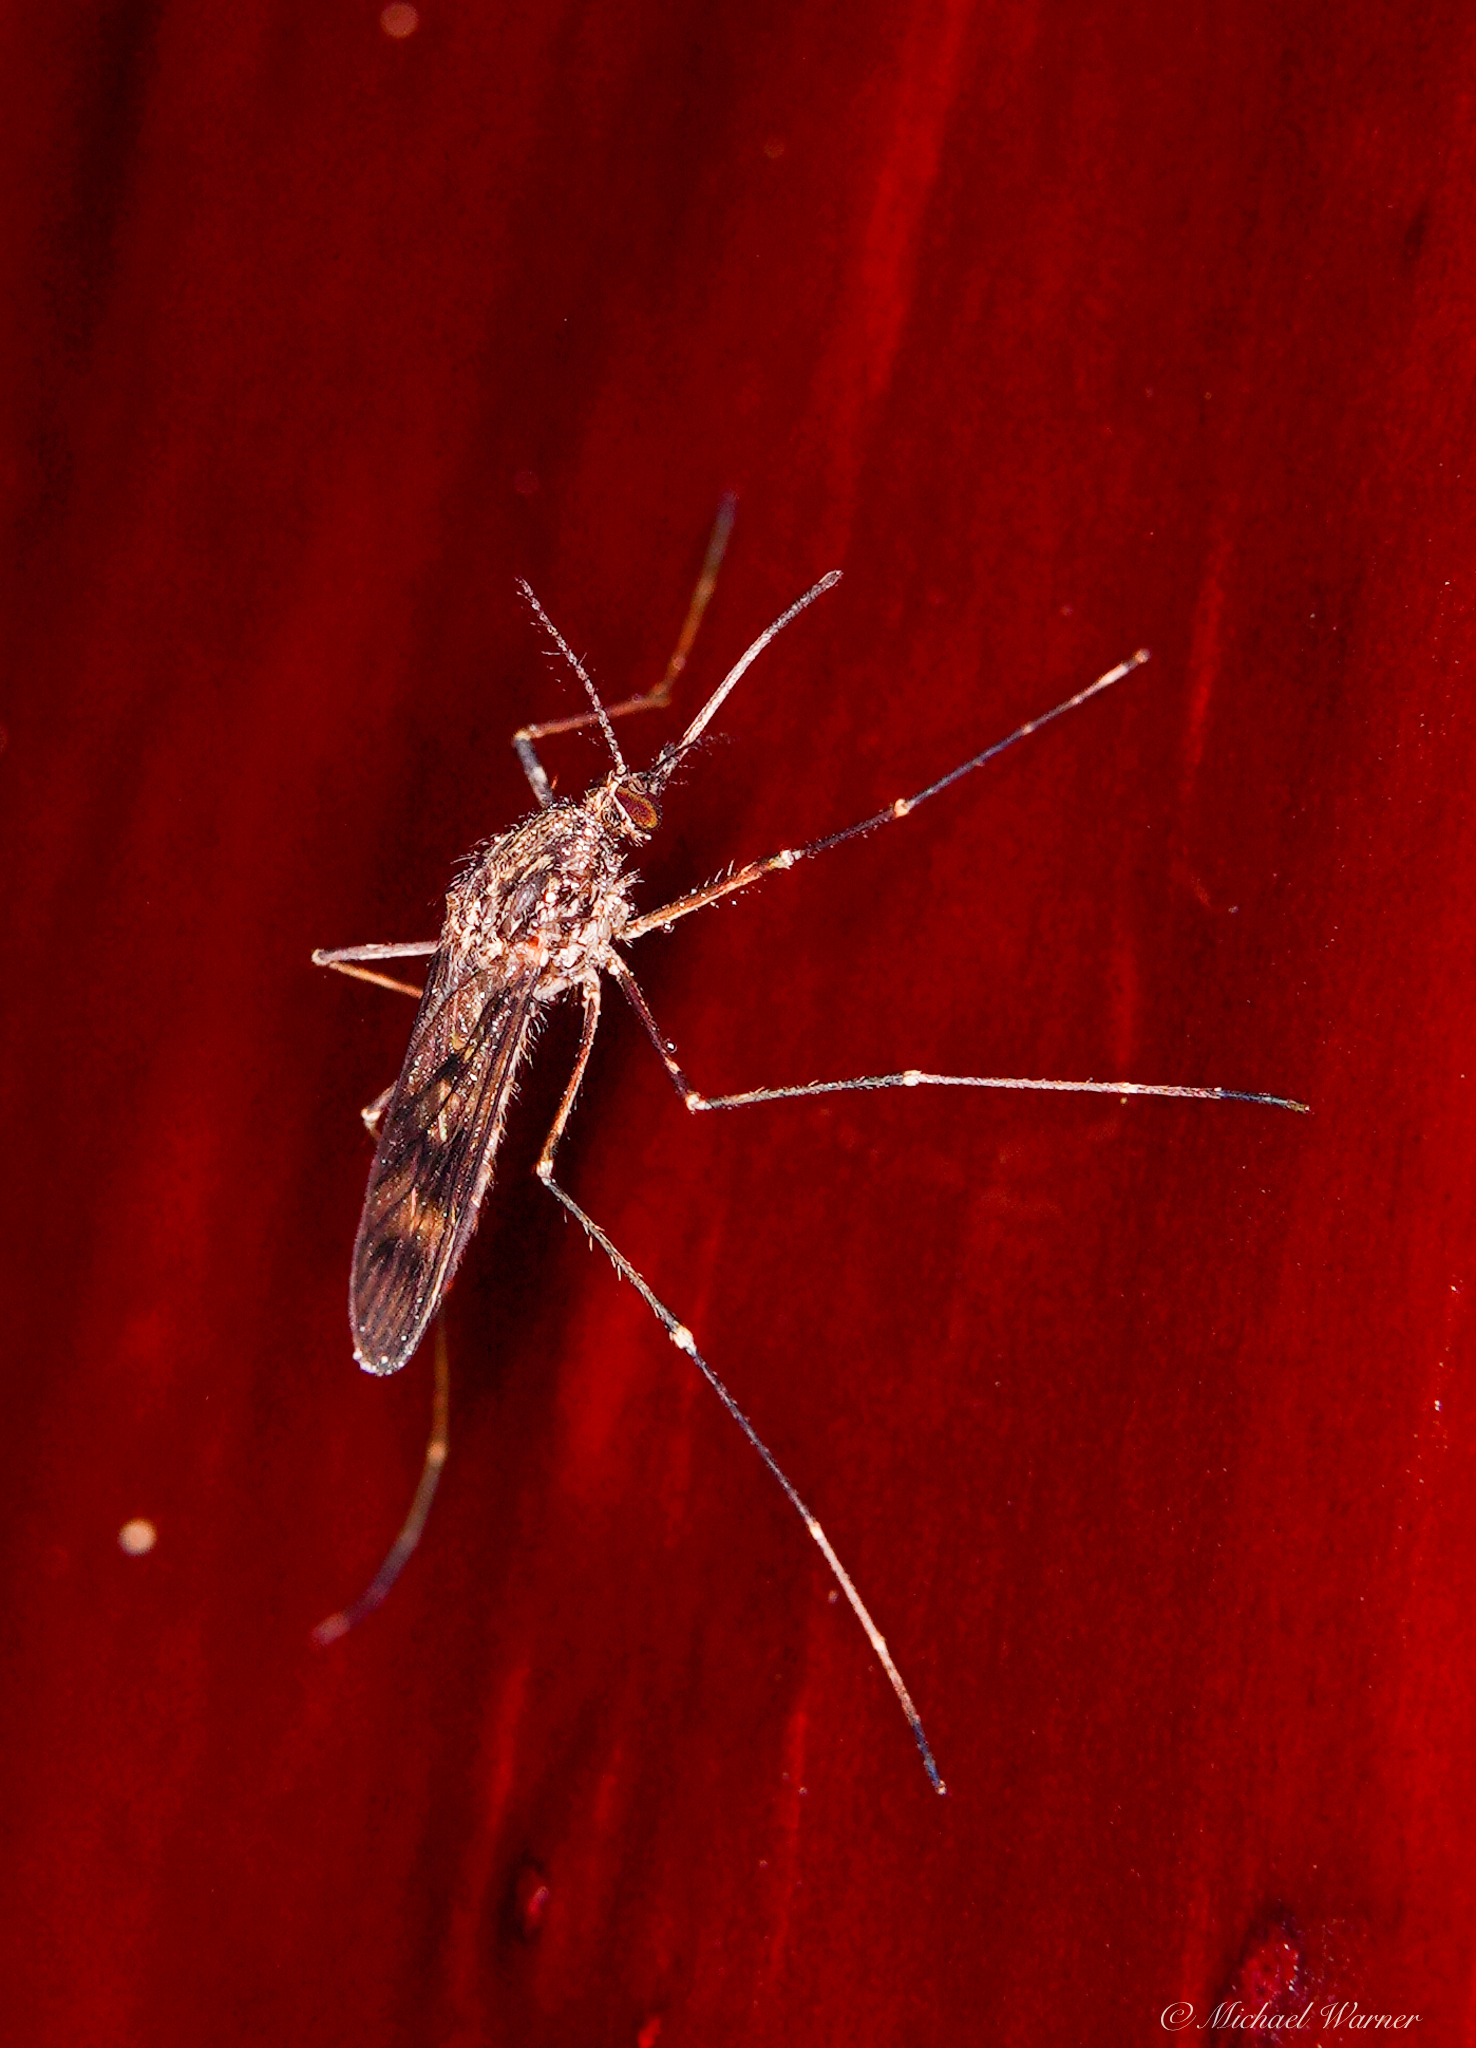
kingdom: Animalia
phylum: Arthropoda
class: Insecta
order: Diptera
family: Culicidae
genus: Culiseta
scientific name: Culiseta incidens
